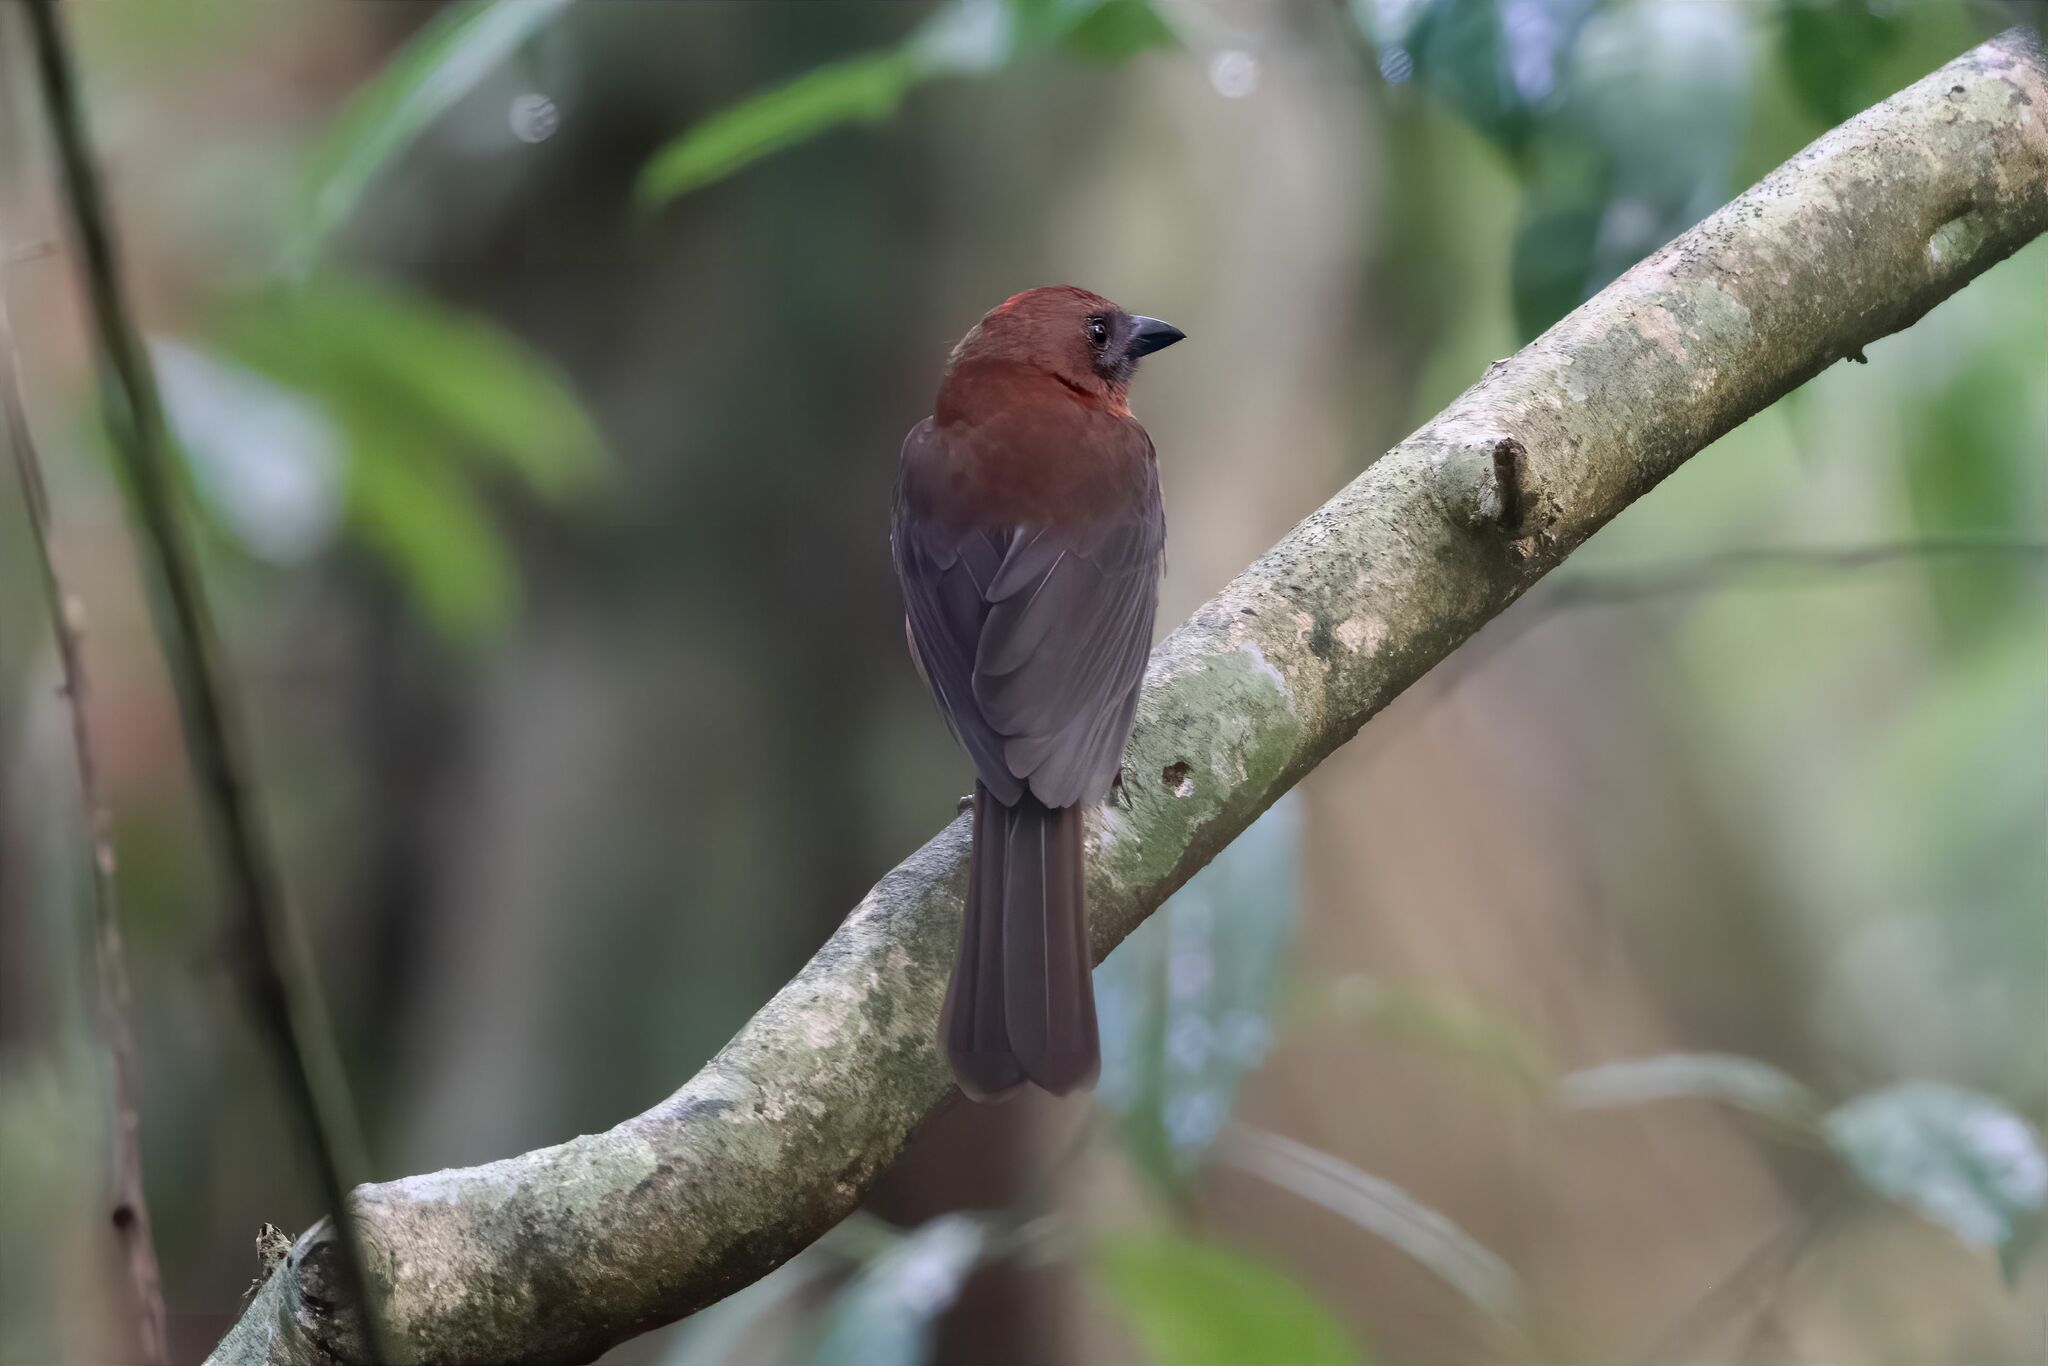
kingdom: Animalia
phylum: Chordata
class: Aves
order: Passeriformes
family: Cardinalidae
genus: Habia
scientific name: Habia fuscicauda
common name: Red-throated ant-tanager
